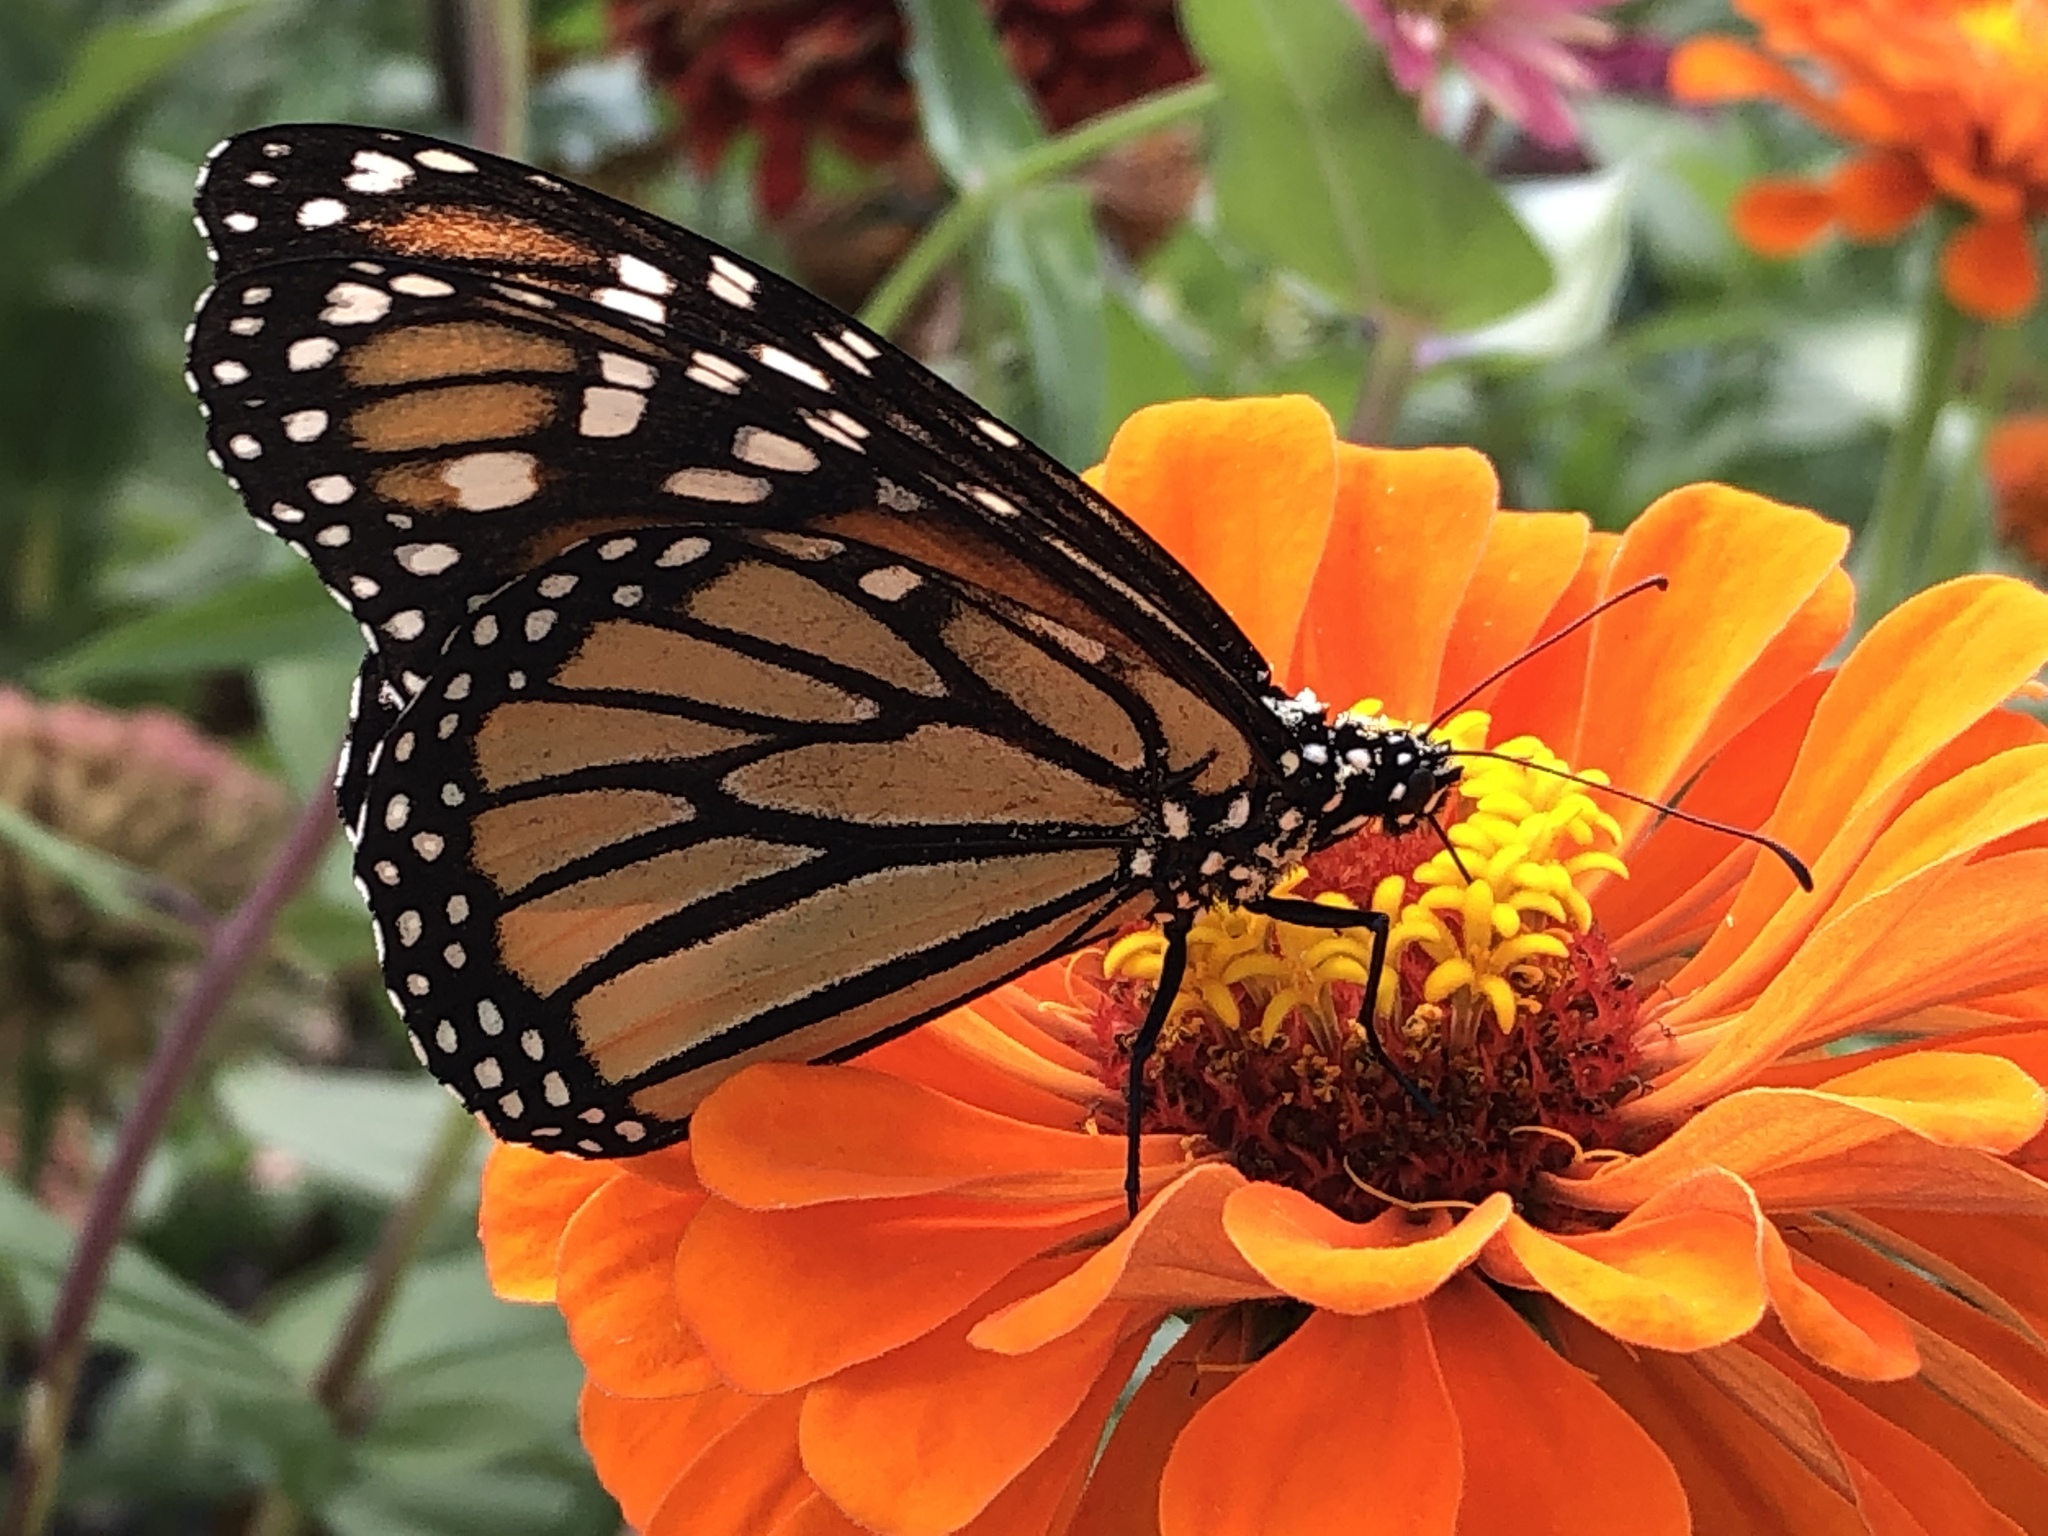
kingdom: Animalia
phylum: Arthropoda
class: Insecta
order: Lepidoptera
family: Nymphalidae
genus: Danaus
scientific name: Danaus plexippus
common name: Monarch
